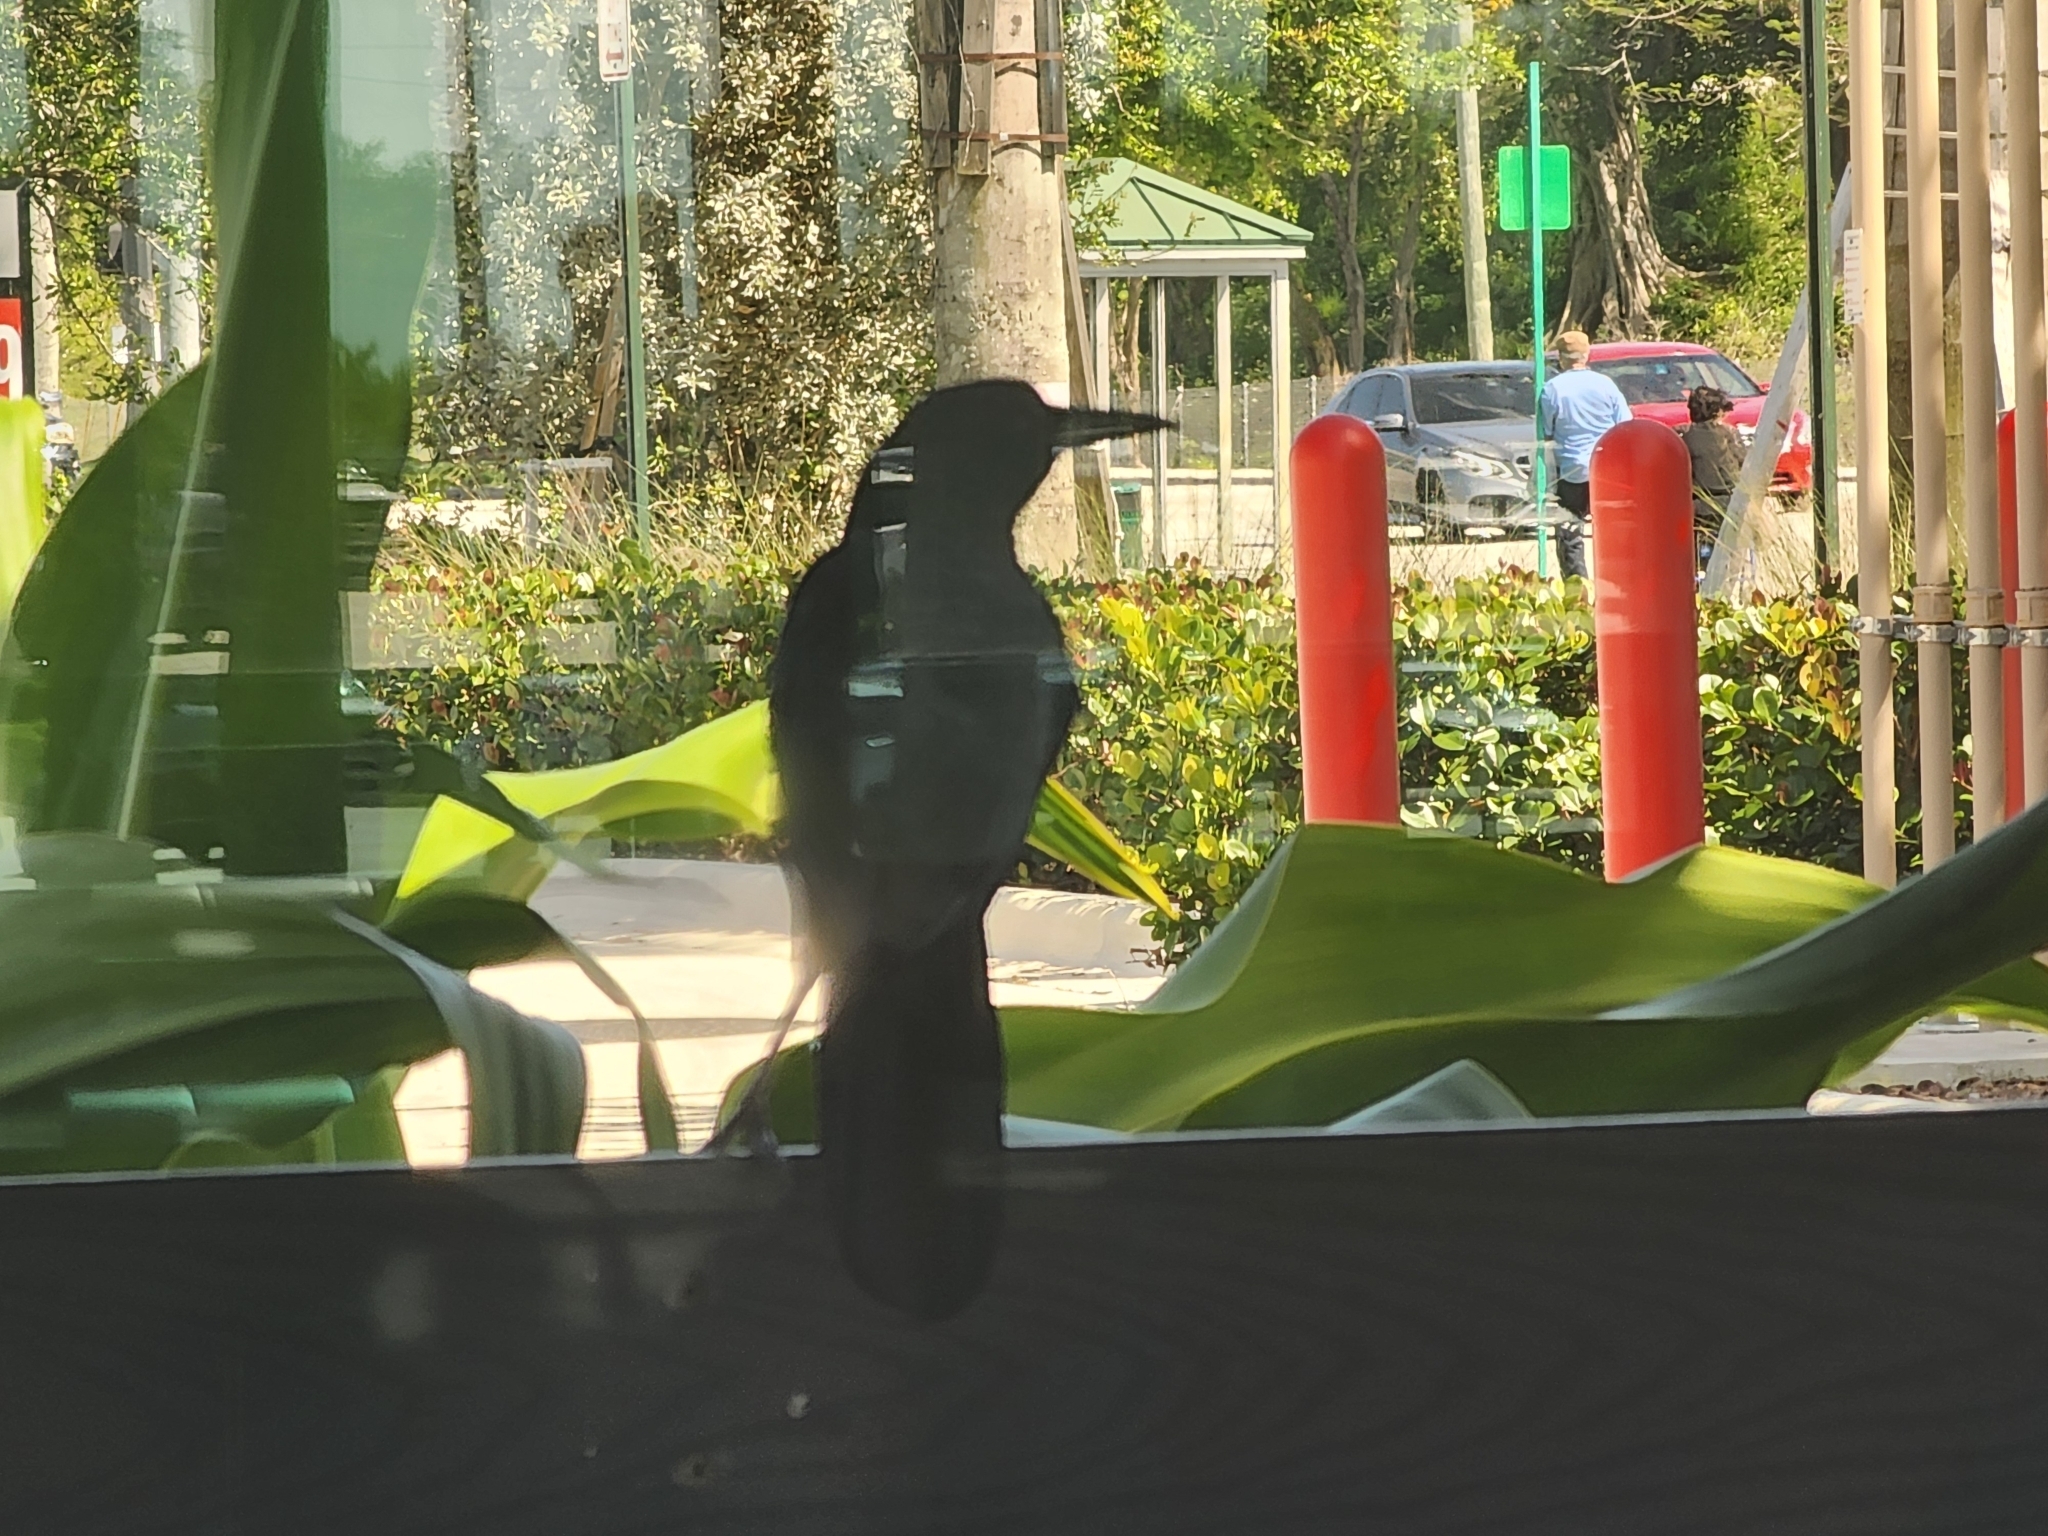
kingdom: Animalia
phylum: Chordata
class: Aves
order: Passeriformes
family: Icteridae
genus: Quiscalus
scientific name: Quiscalus major
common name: Boat-tailed grackle
